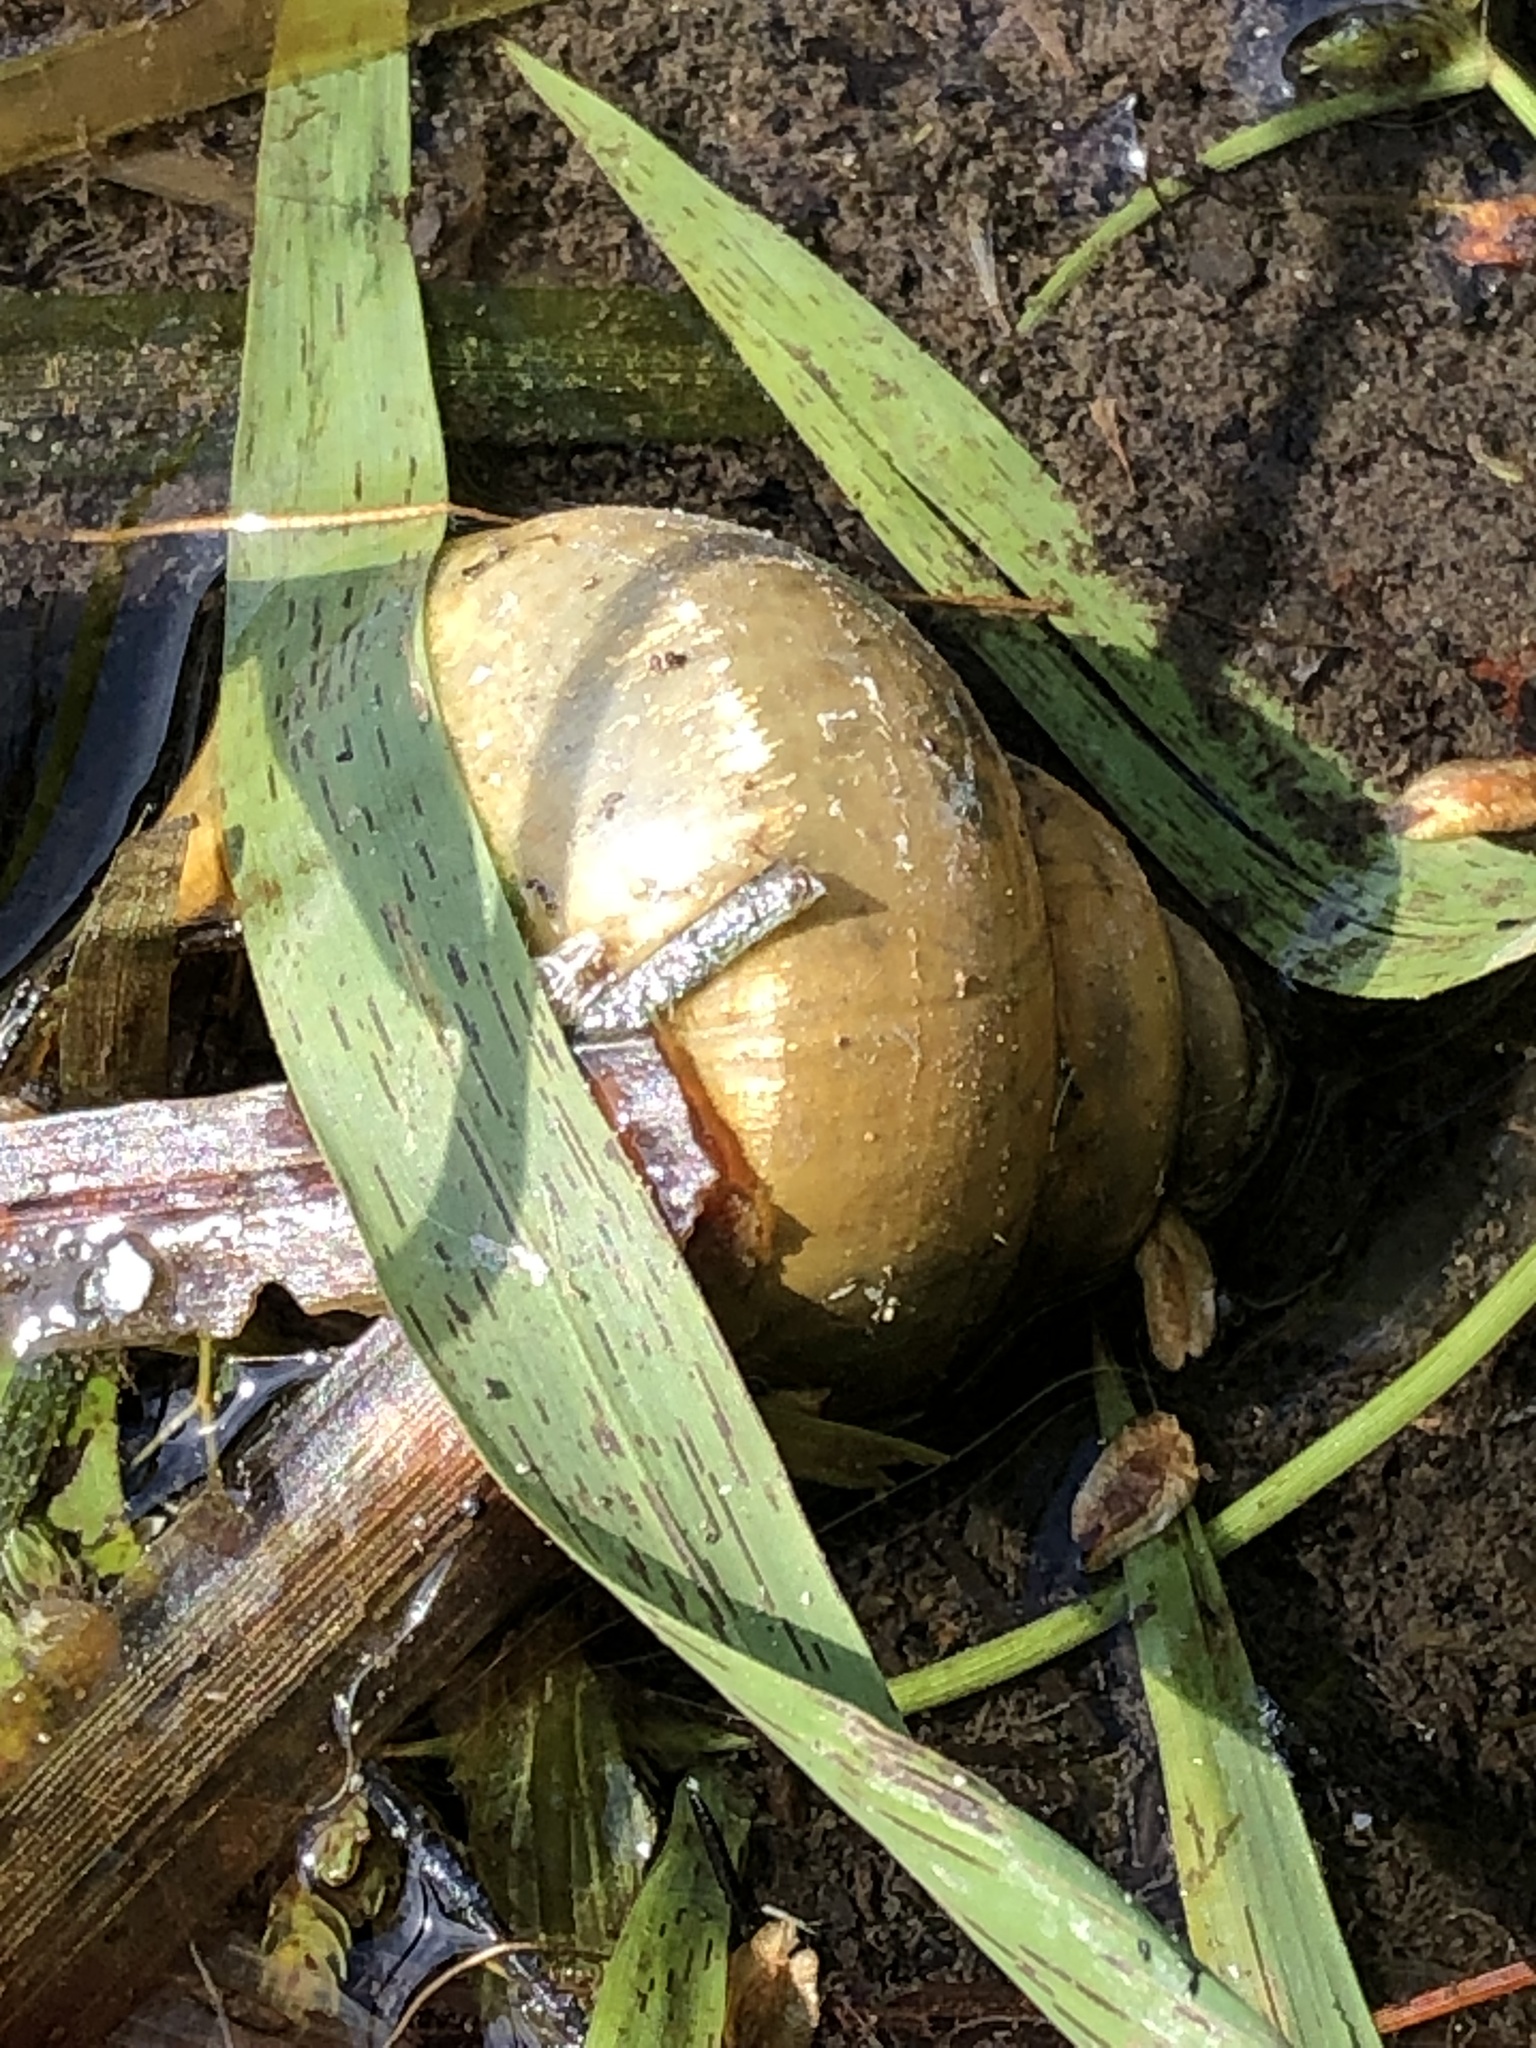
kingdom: Animalia
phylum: Mollusca
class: Gastropoda
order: Architaenioglossa
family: Viviparidae
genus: Cipangopaludina
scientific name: Cipangopaludina chinensis
